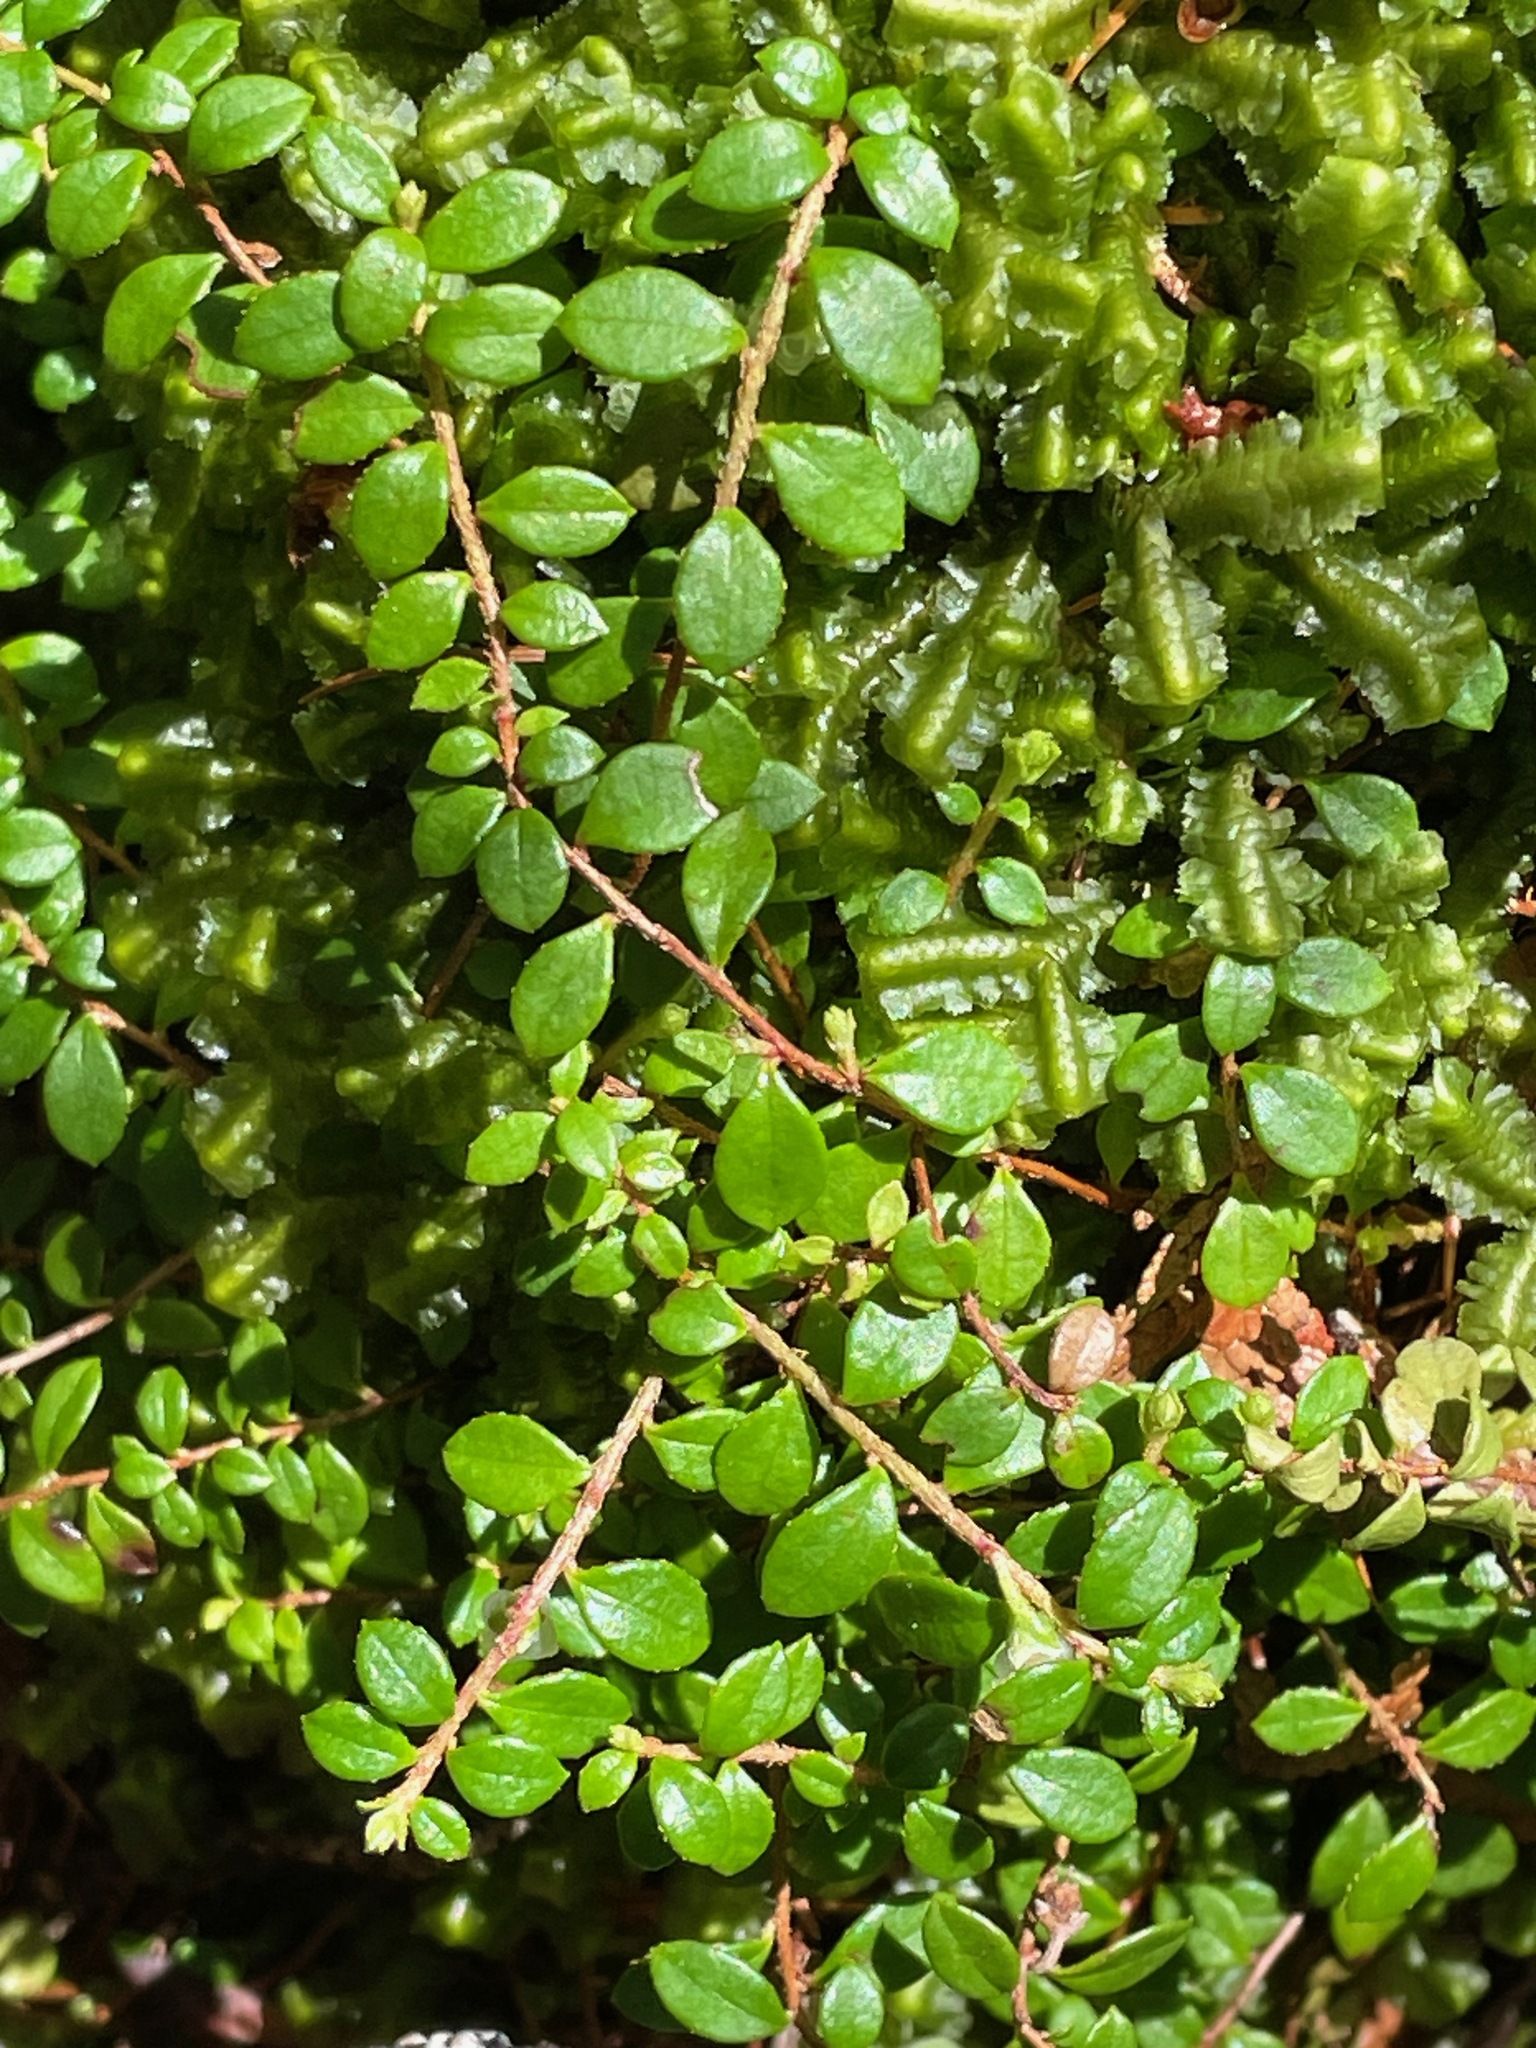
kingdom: Plantae
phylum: Tracheophyta
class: Magnoliopsida
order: Ericales
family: Ericaceae
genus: Gaultheria
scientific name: Gaultheria hispidula
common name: Cancer wintergreen
